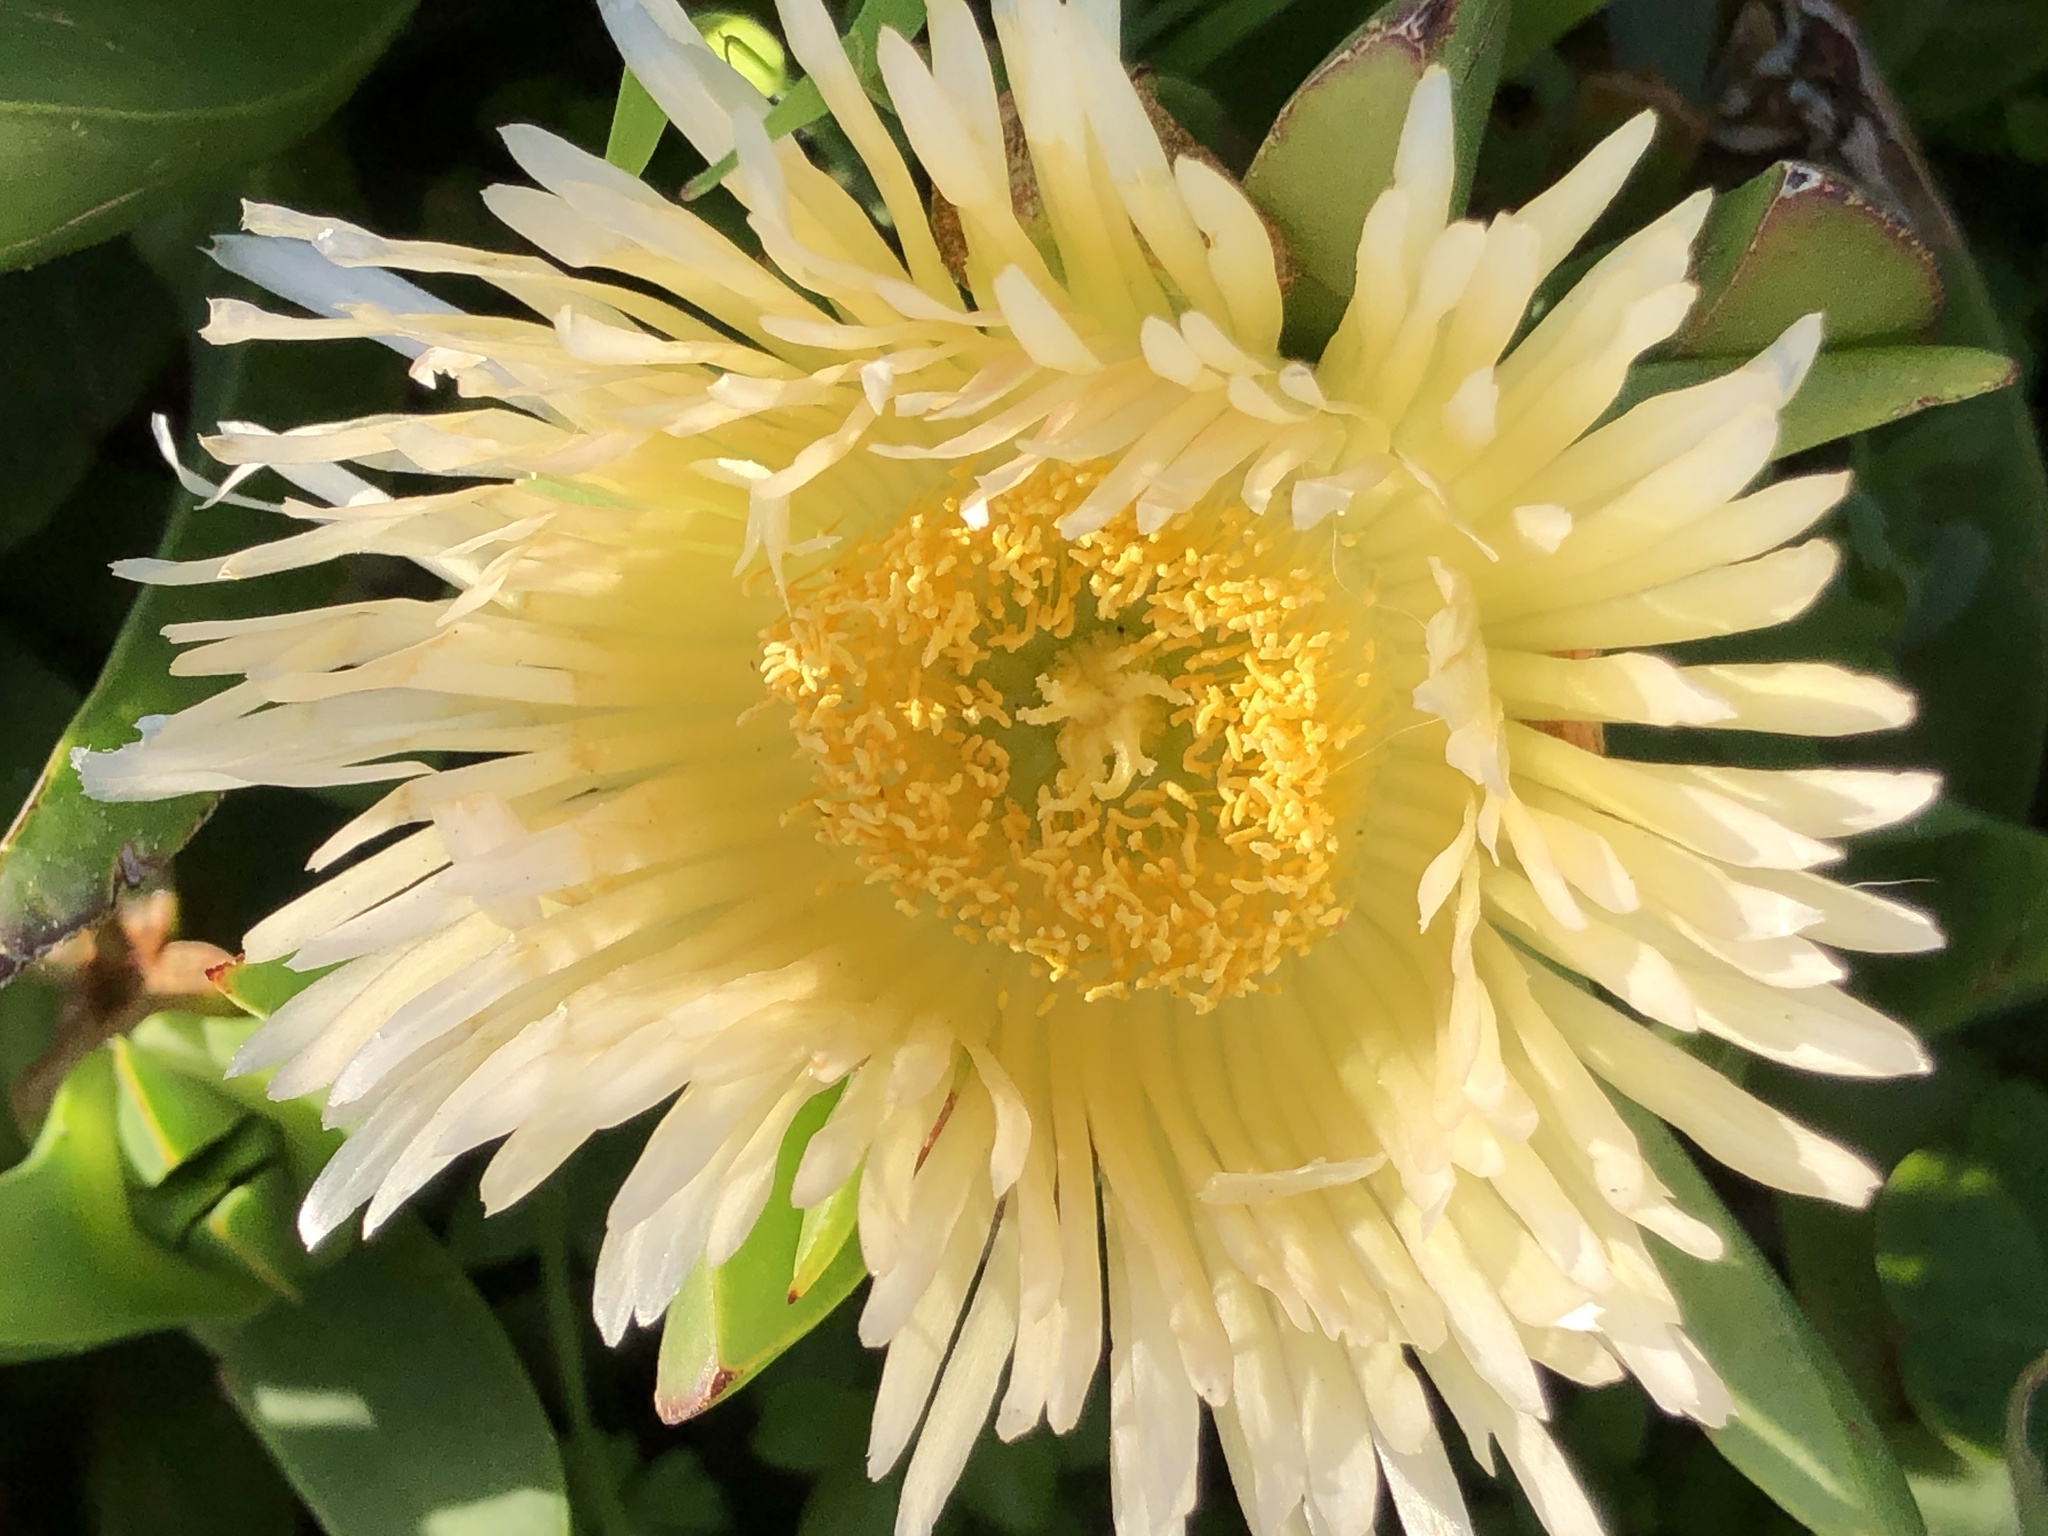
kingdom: Plantae
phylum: Tracheophyta
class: Magnoliopsida
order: Caryophyllales
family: Aizoaceae
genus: Carpobrotus
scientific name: Carpobrotus edulis
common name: Hottentot-fig
